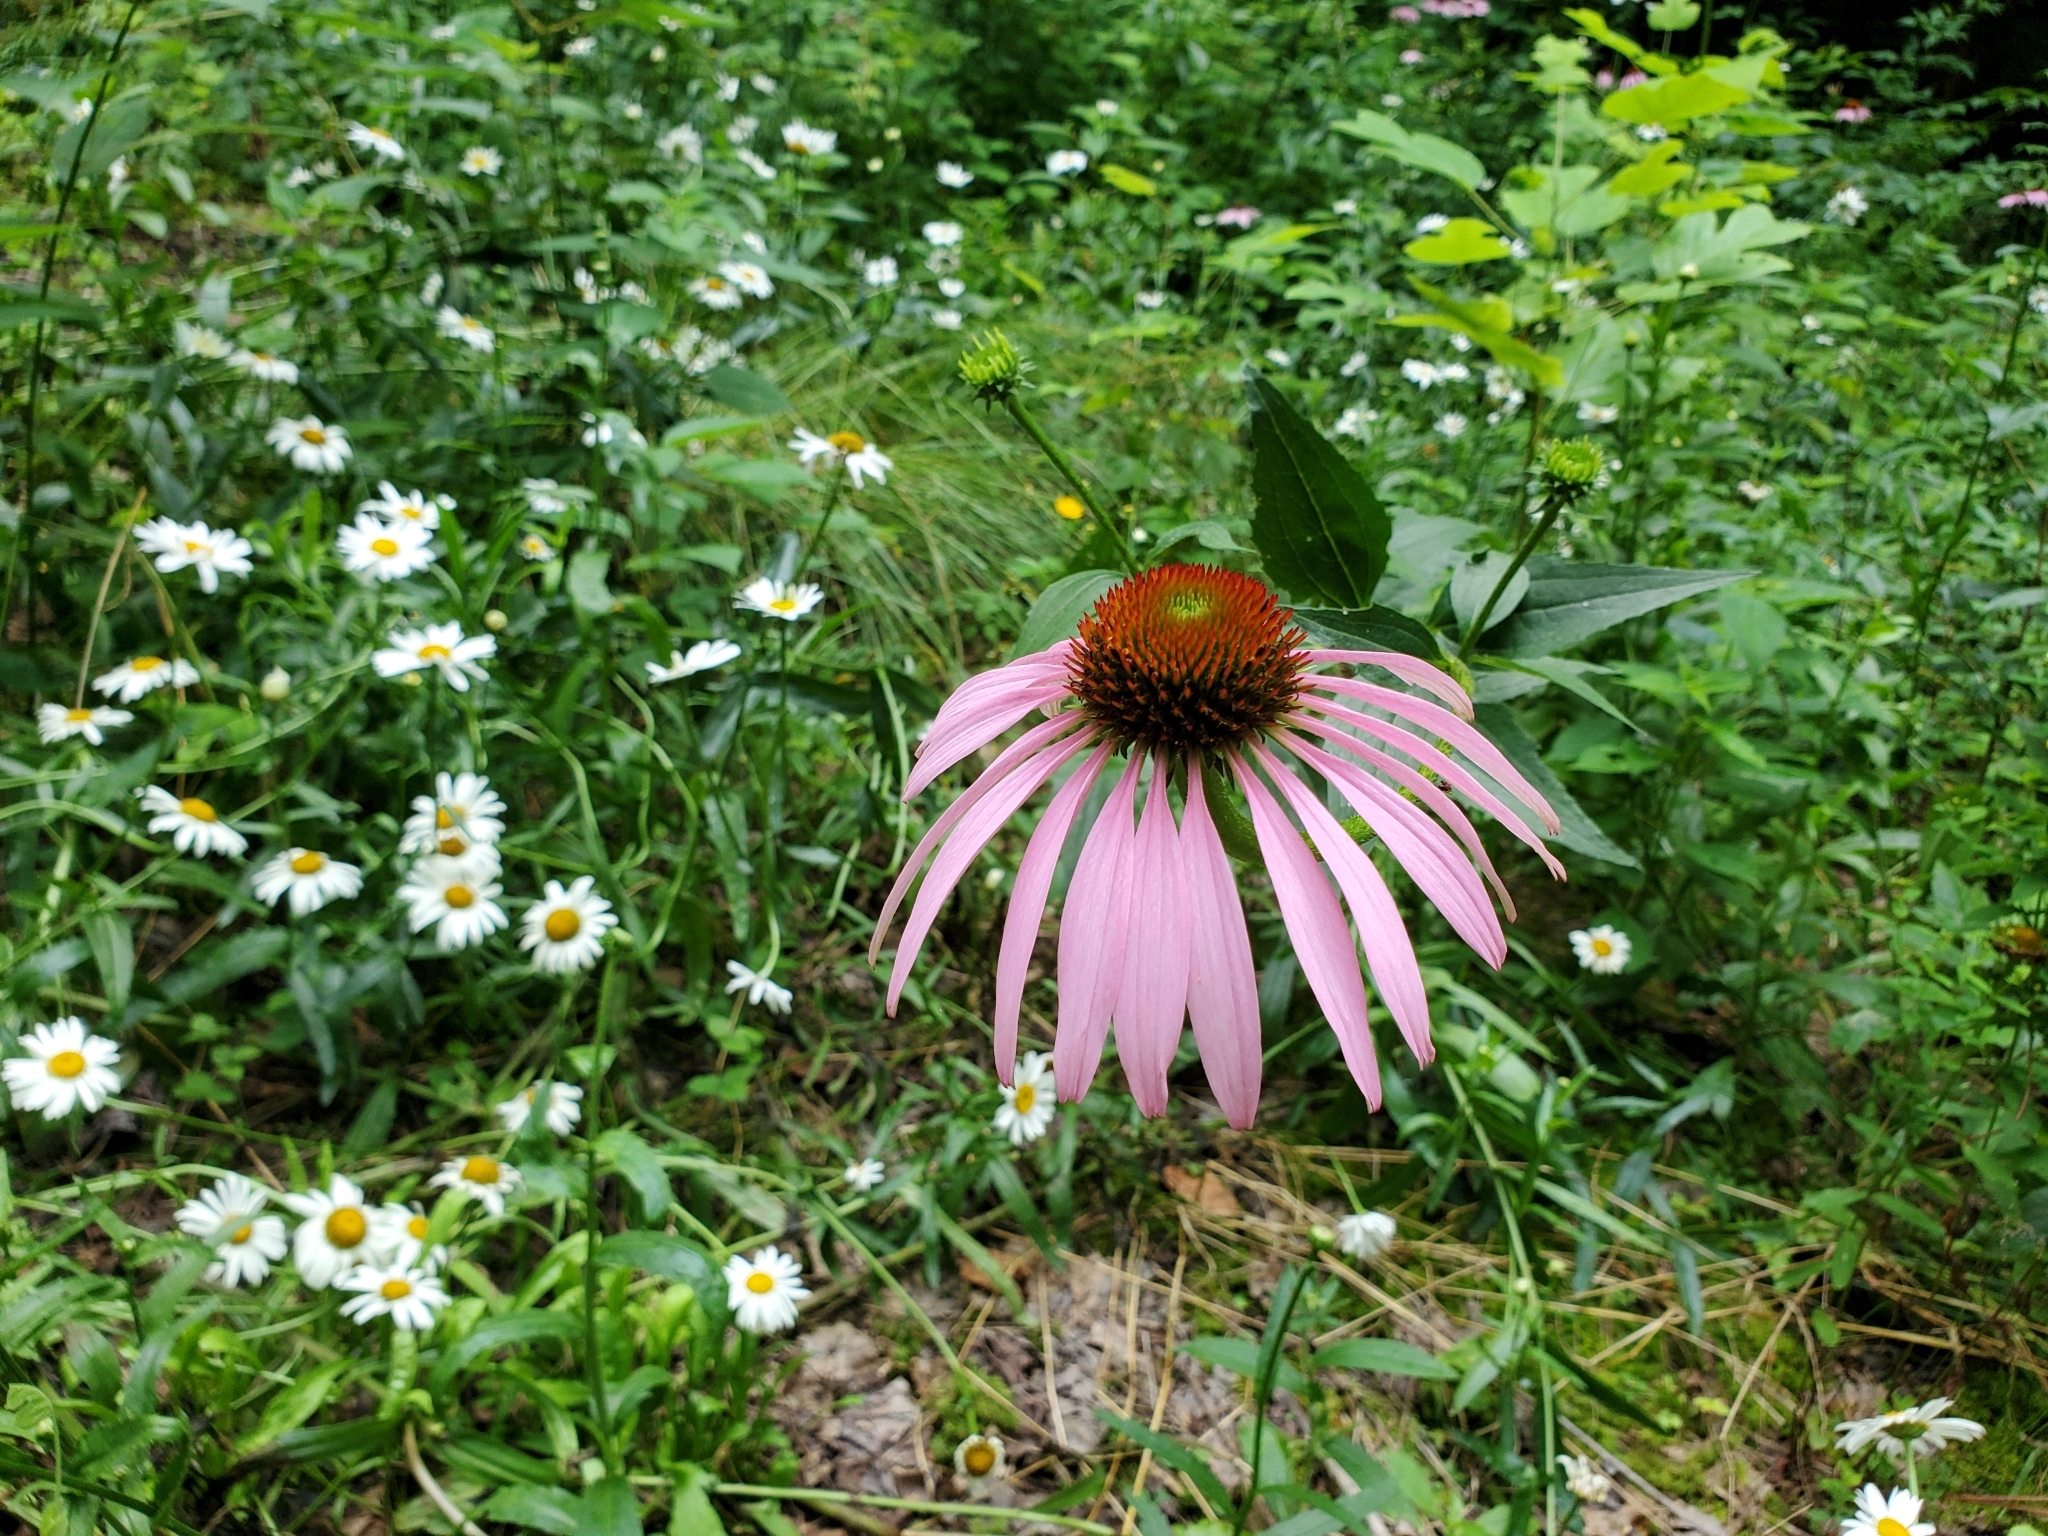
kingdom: Plantae
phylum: Tracheophyta
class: Magnoliopsida
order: Asterales
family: Asteraceae
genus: Echinacea
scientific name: Echinacea purpurea
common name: Broad-leaved purple coneflower
